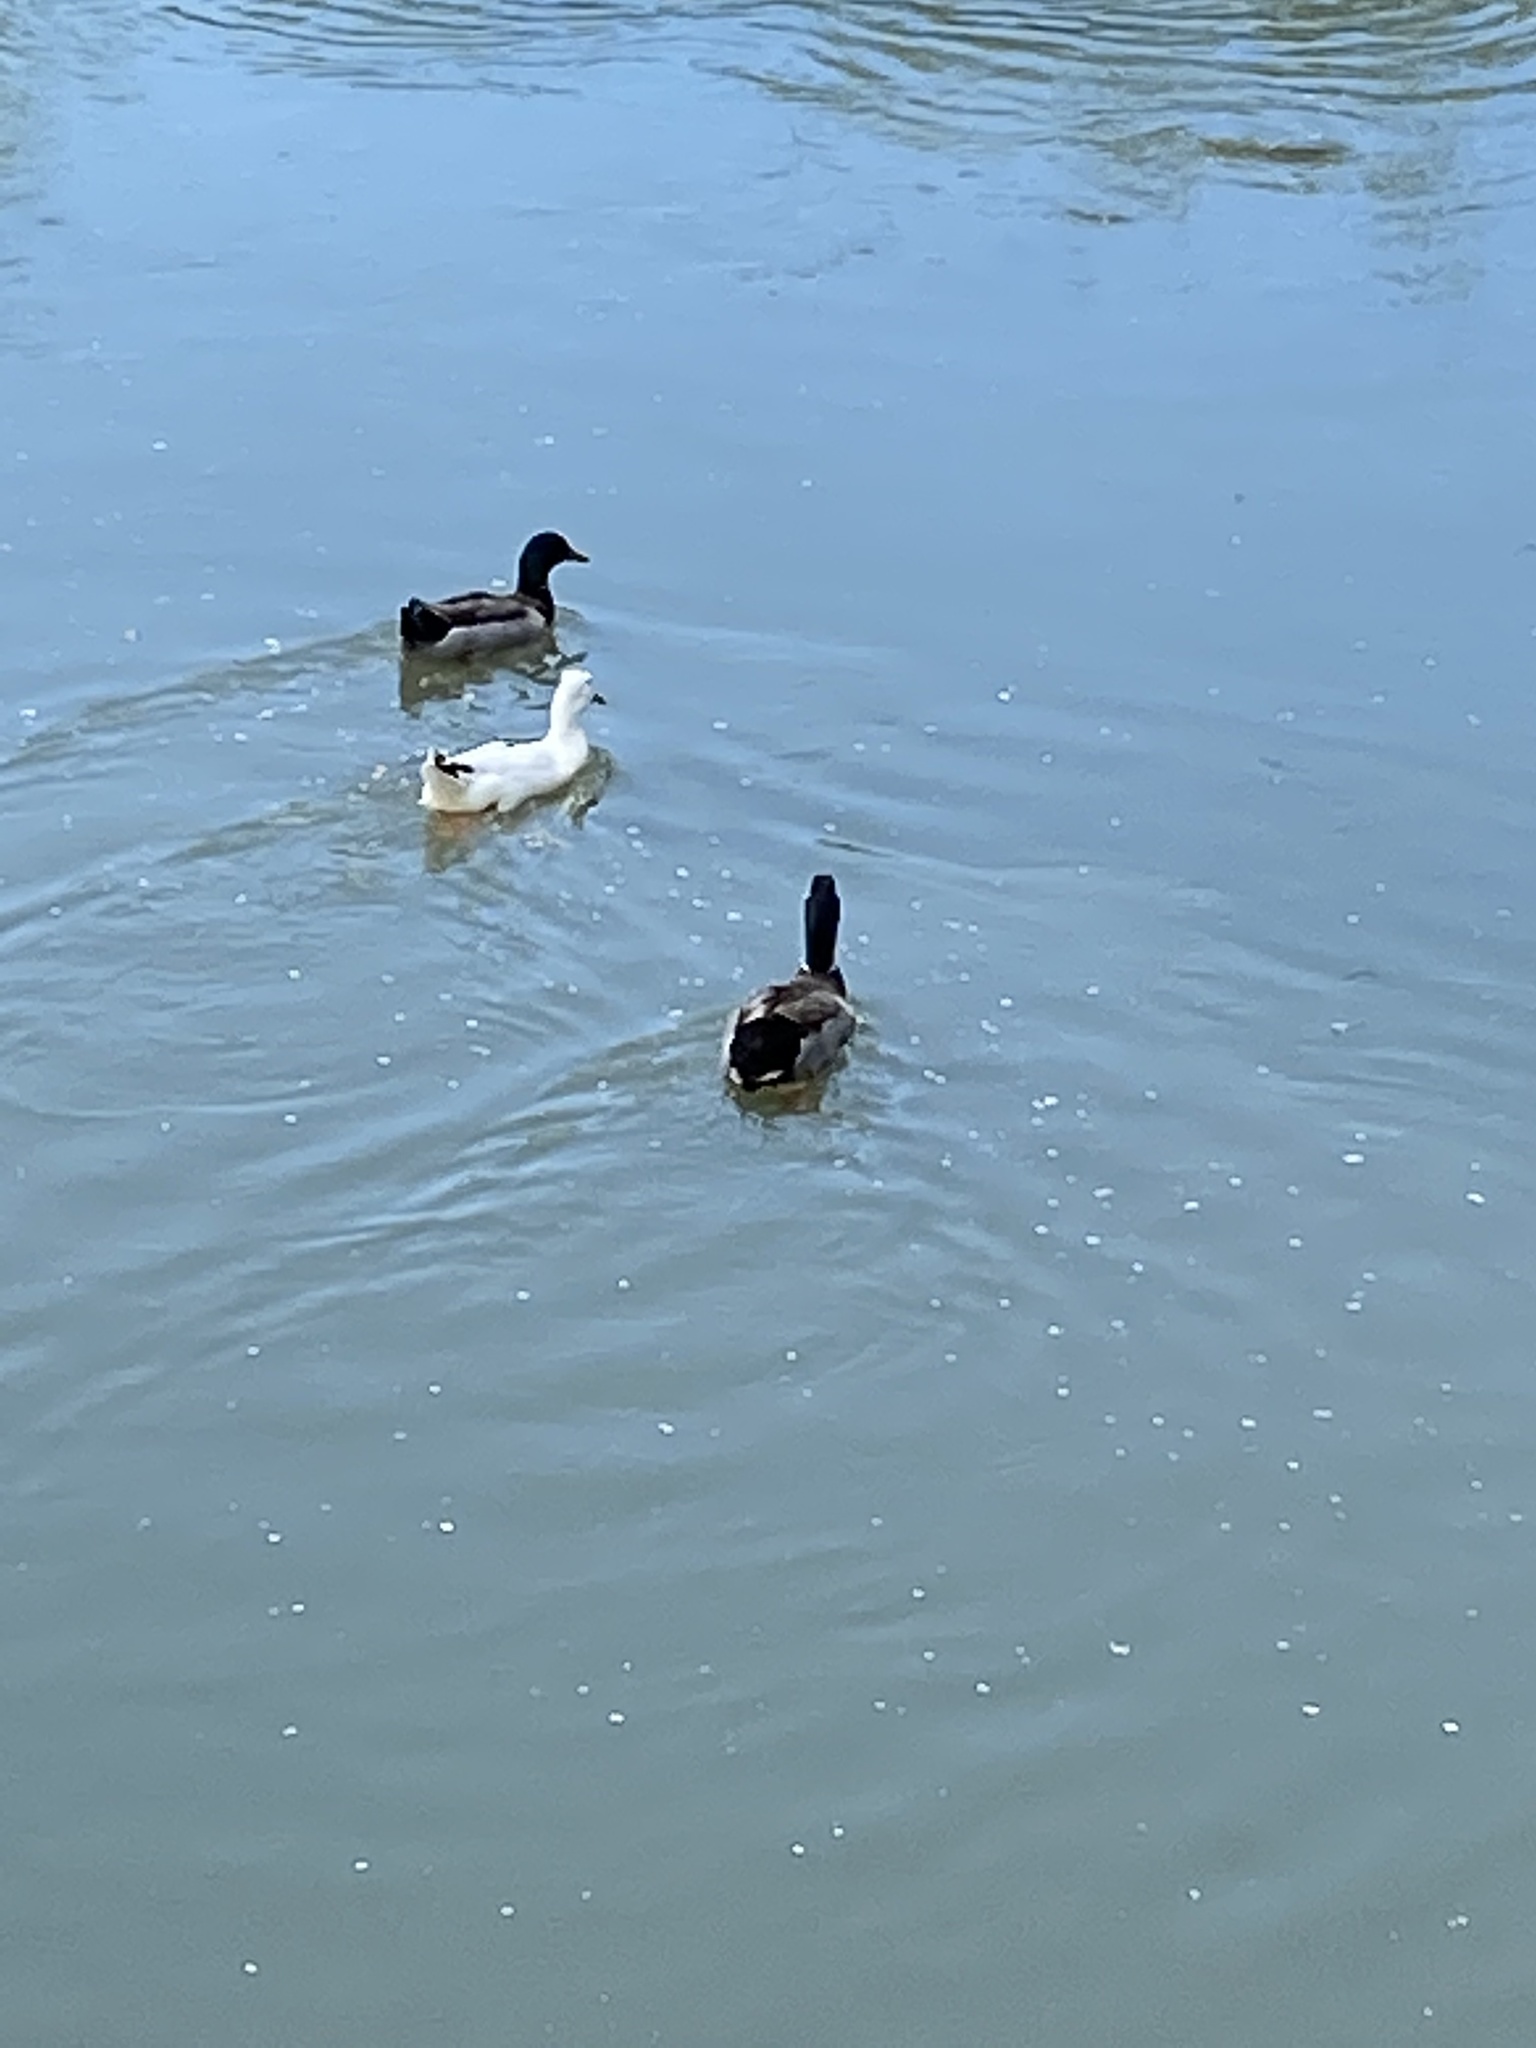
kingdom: Animalia
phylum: Chordata
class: Aves
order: Anseriformes
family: Anatidae
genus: Anas
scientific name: Anas platyrhynchos
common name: Mallard
